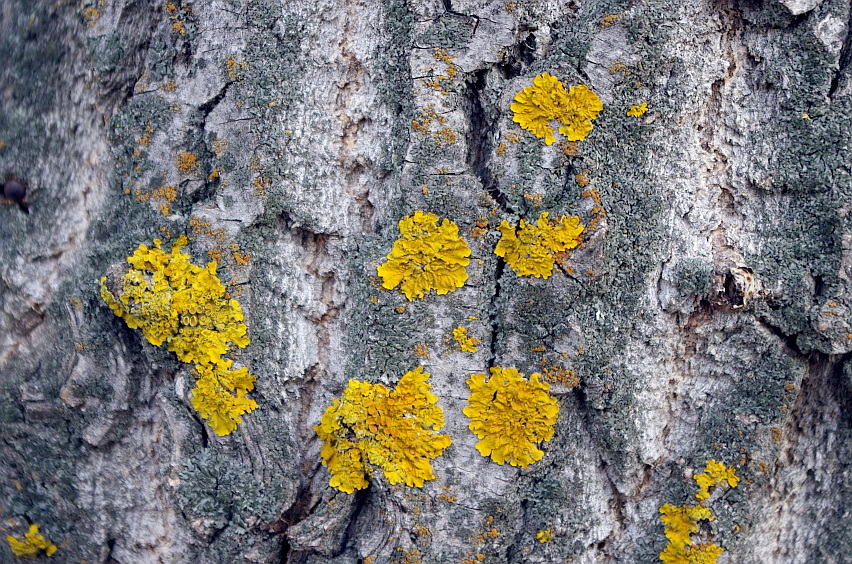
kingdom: Fungi
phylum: Ascomycota
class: Lecanoromycetes
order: Teloschistales
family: Teloschistaceae
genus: Xanthoria
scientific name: Xanthoria parietina
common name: Common orange lichen
